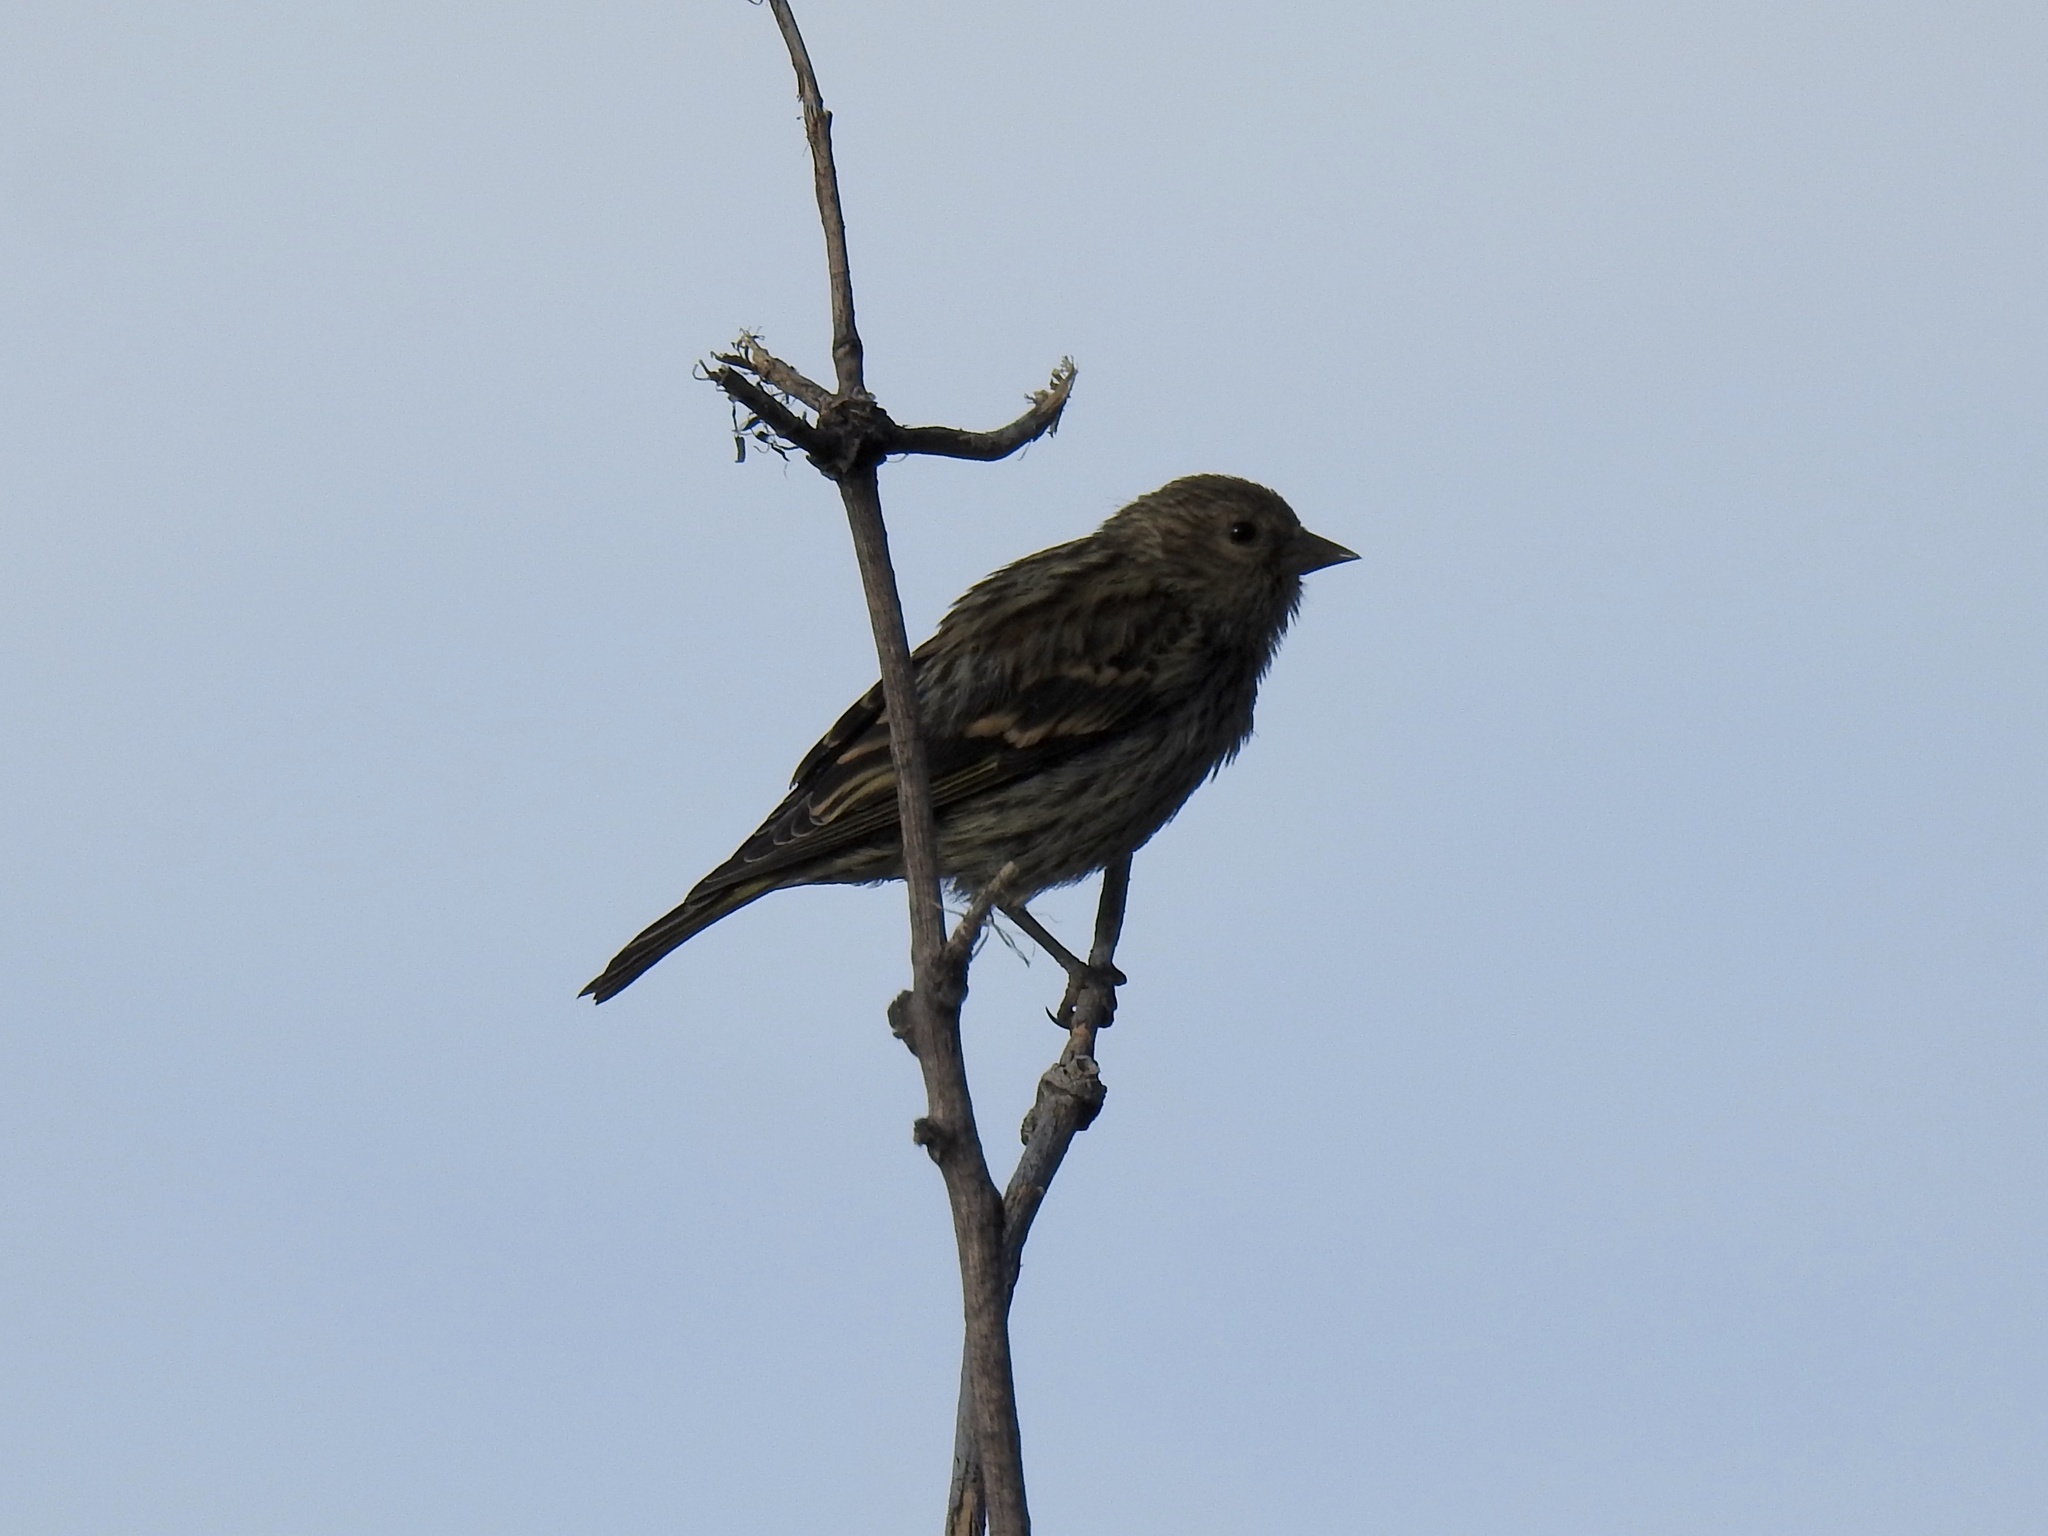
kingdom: Animalia
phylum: Chordata
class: Aves
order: Passeriformes
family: Fringillidae
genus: Spinus
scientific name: Spinus pinus
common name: Pine siskin
